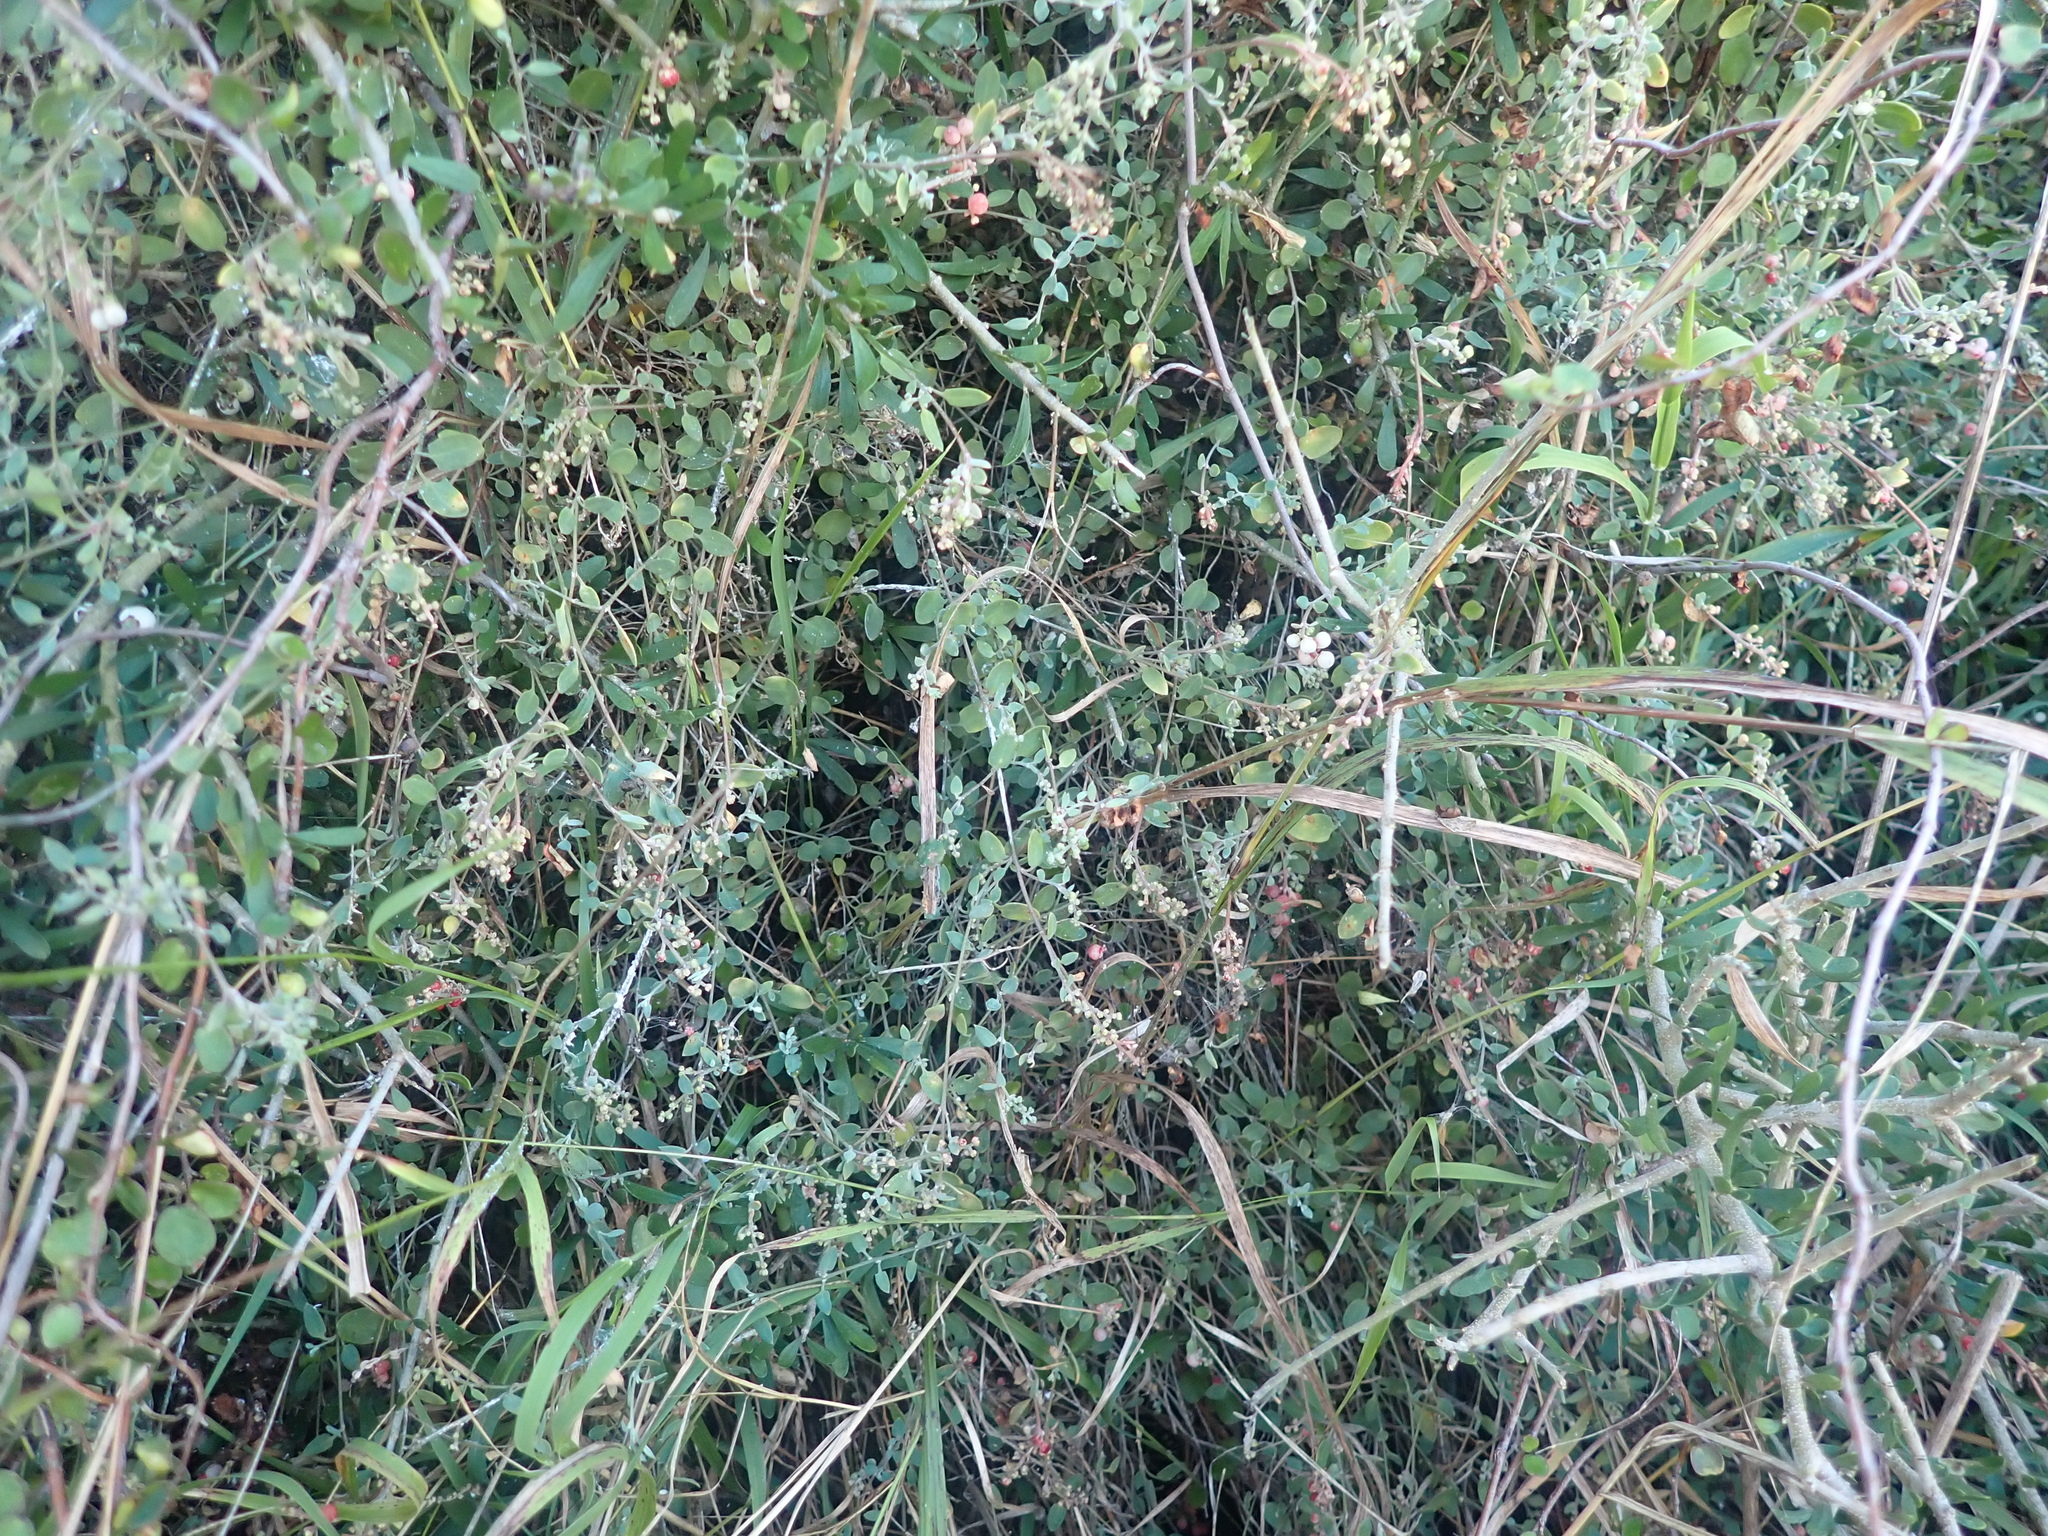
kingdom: Plantae
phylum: Tracheophyta
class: Magnoliopsida
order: Caryophyllales
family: Amaranthaceae
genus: Chenopodium
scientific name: Chenopodium triandrum
